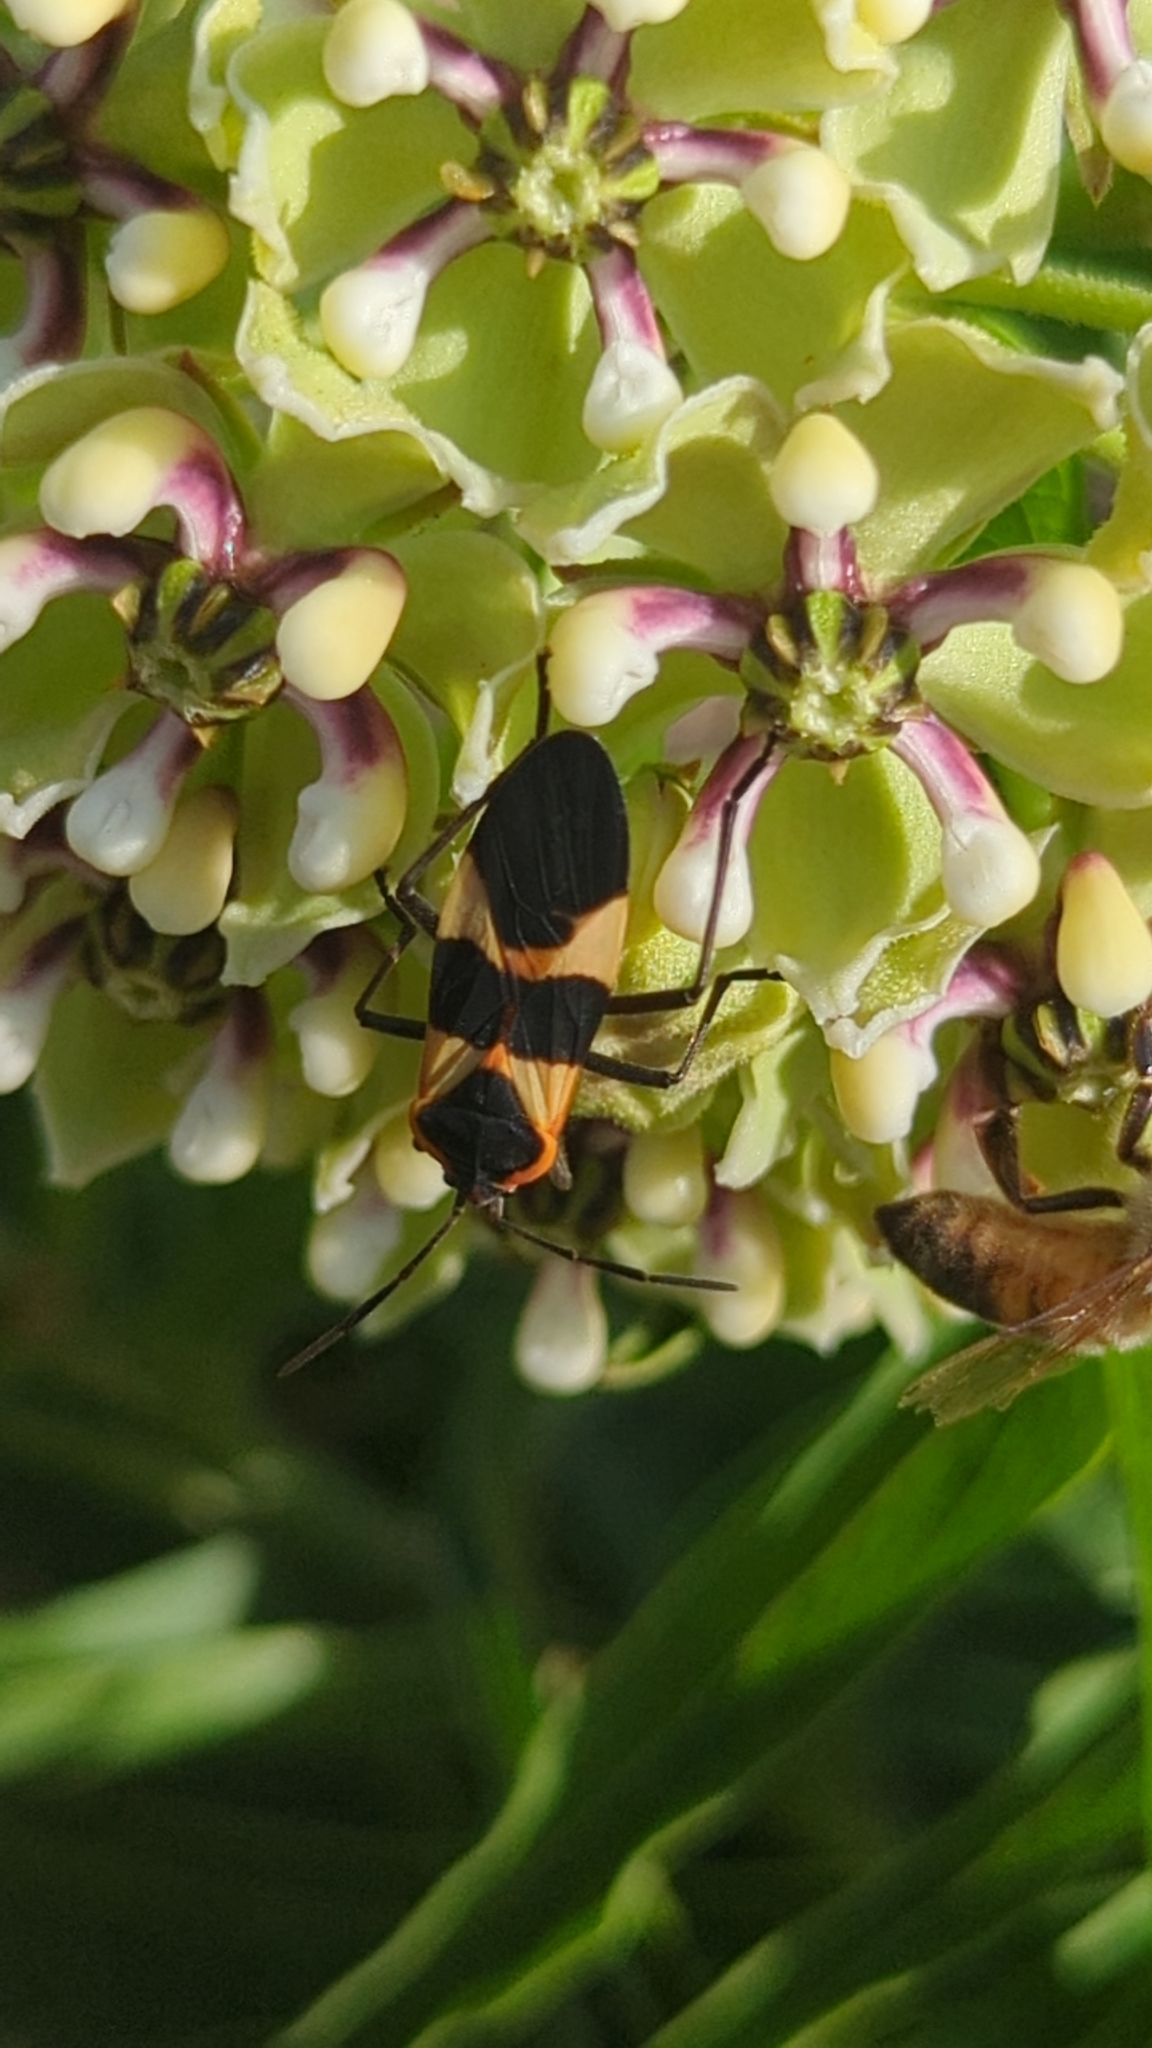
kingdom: Animalia
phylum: Arthropoda
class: Insecta
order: Hemiptera
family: Lygaeidae
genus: Oncopeltus
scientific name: Oncopeltus fasciatus
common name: Large milkweed bug
